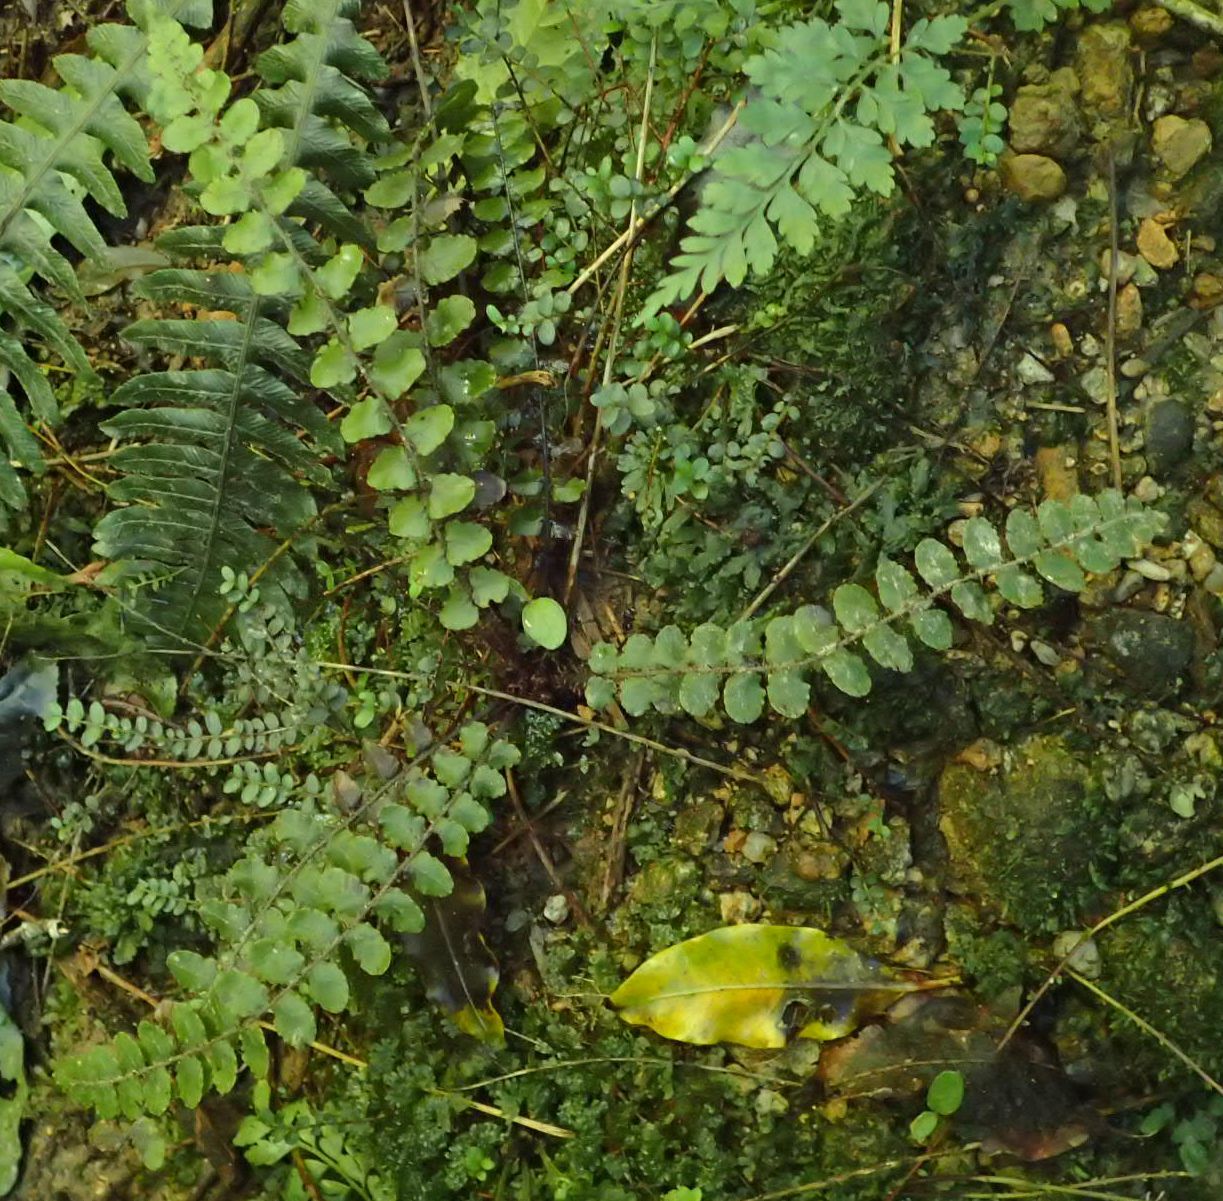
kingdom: Plantae
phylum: Tracheophyta
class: Polypodiopsida
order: Polypodiales
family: Blechnaceae
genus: Cranfillia
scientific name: Cranfillia fluviatilis
